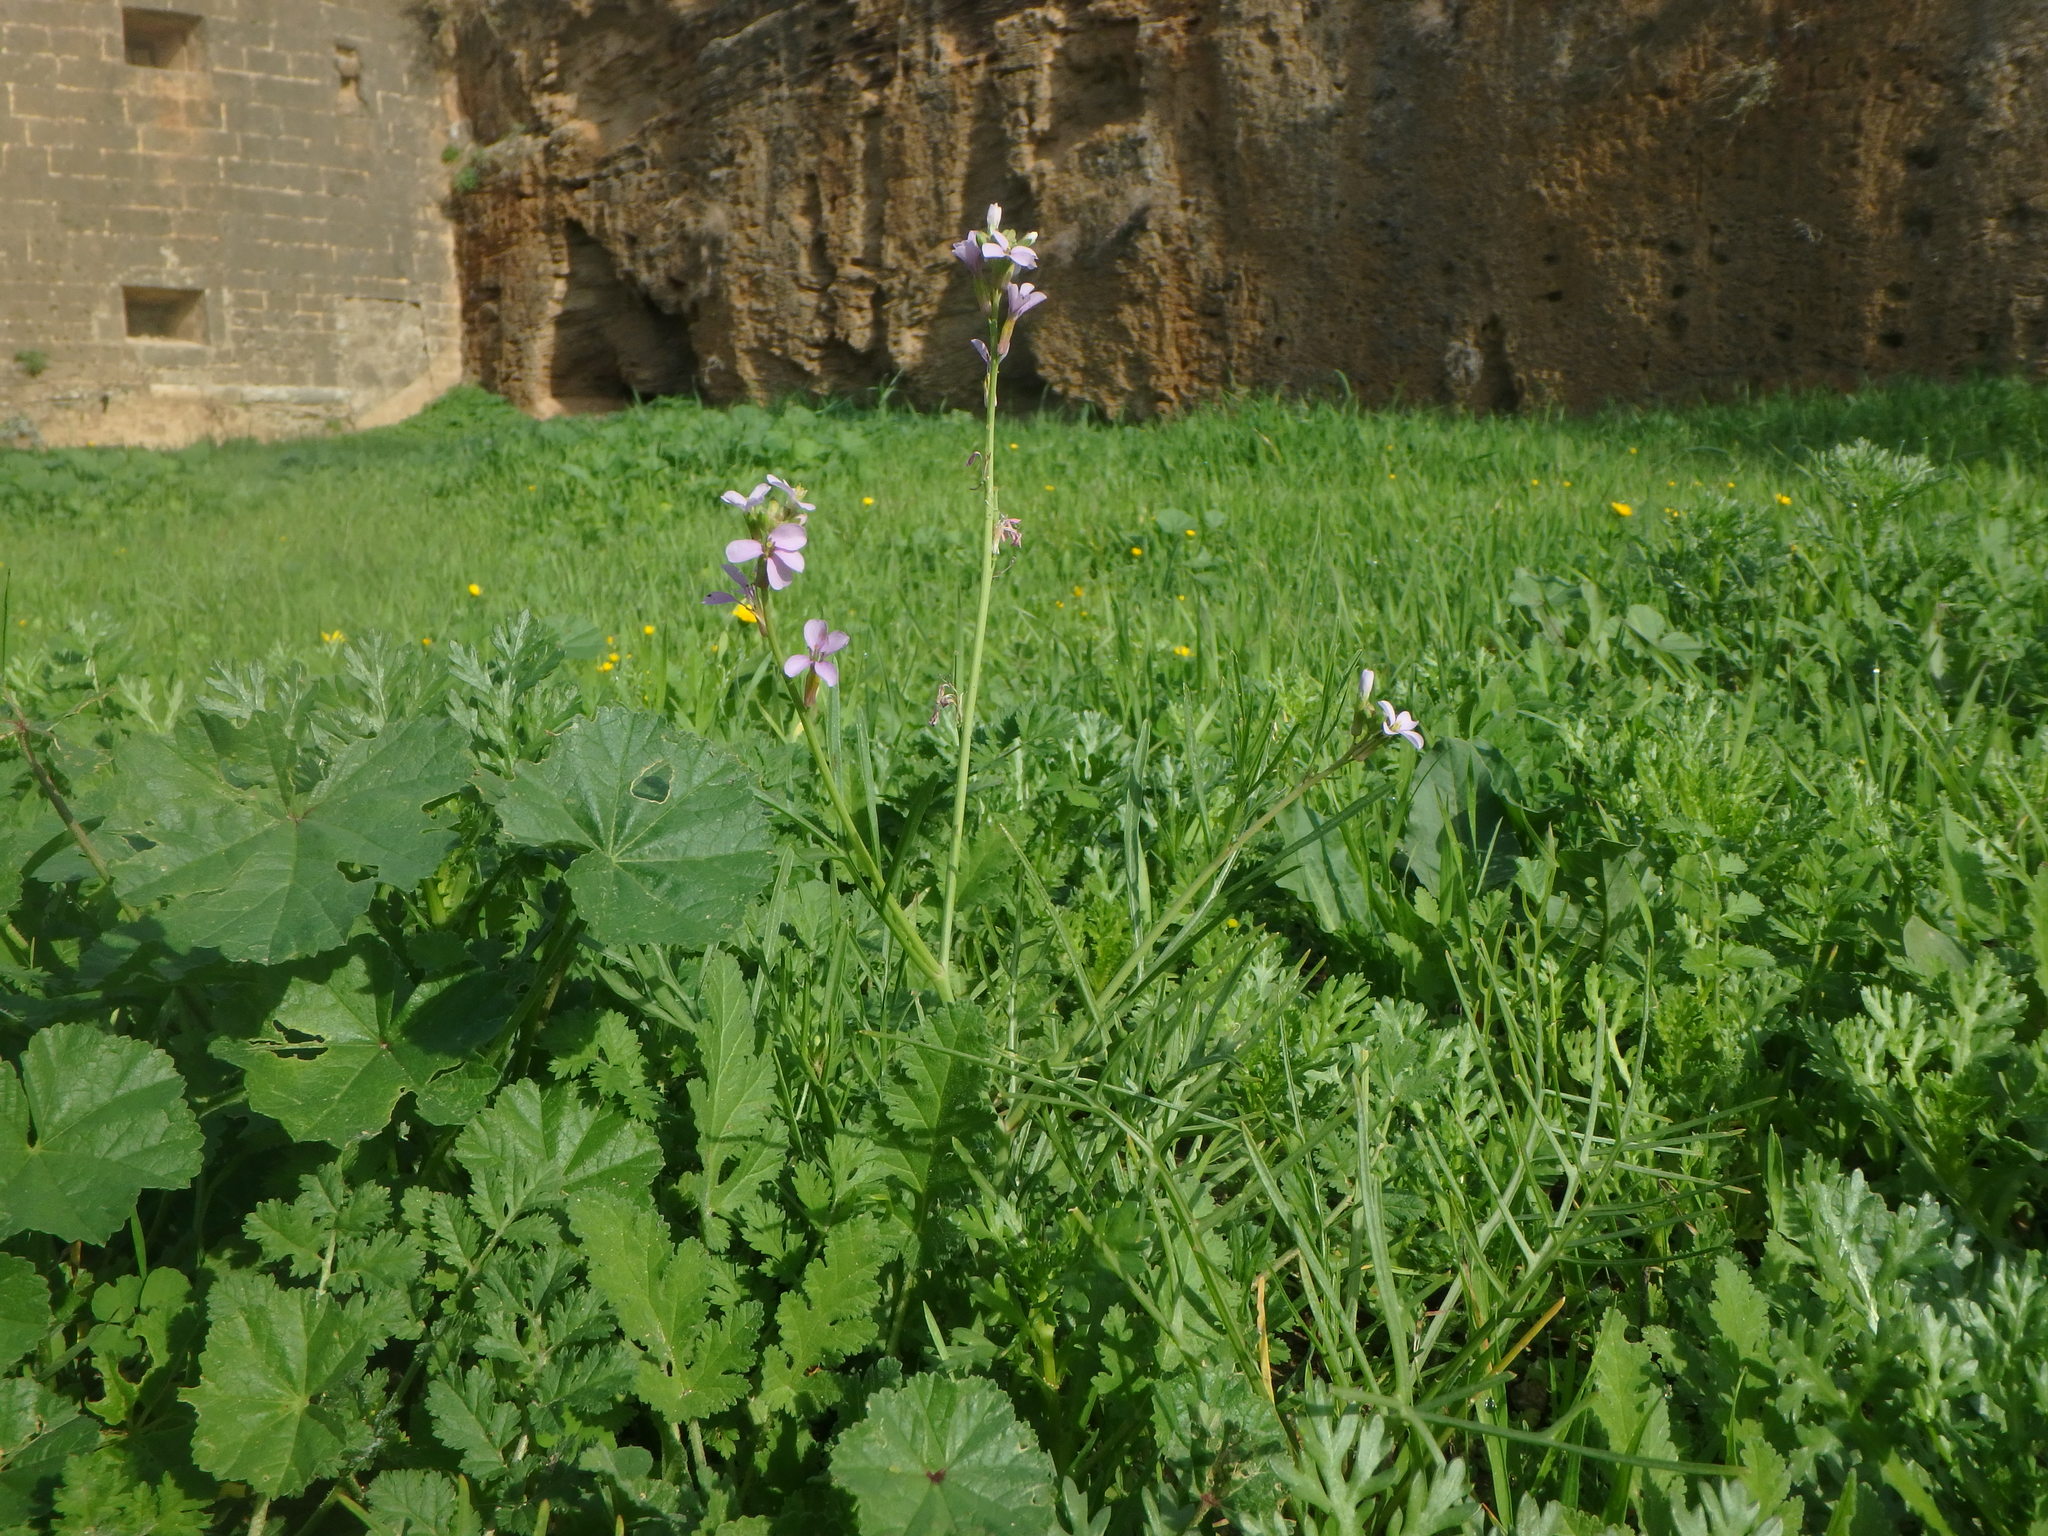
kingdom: Plantae
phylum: Tracheophyta
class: Magnoliopsida
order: Brassicales
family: Brassicaceae
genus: Erucaria
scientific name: Erucaria hispanica
